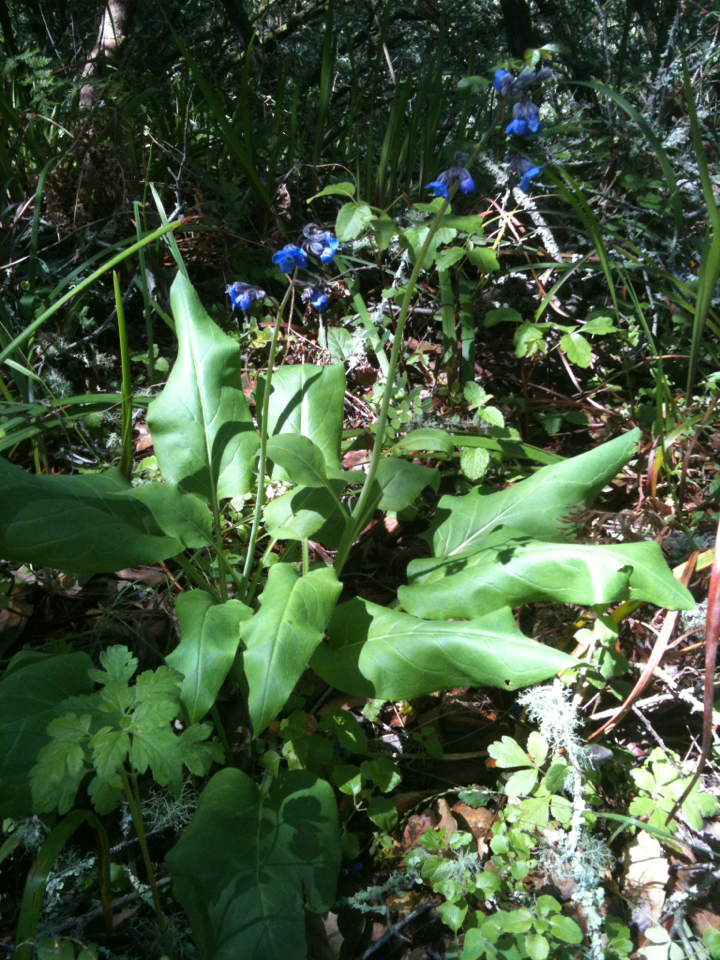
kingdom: Plantae
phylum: Tracheophyta
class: Magnoliopsida
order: Boraginales
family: Boraginaceae
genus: Adelinia
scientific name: Adelinia grande
